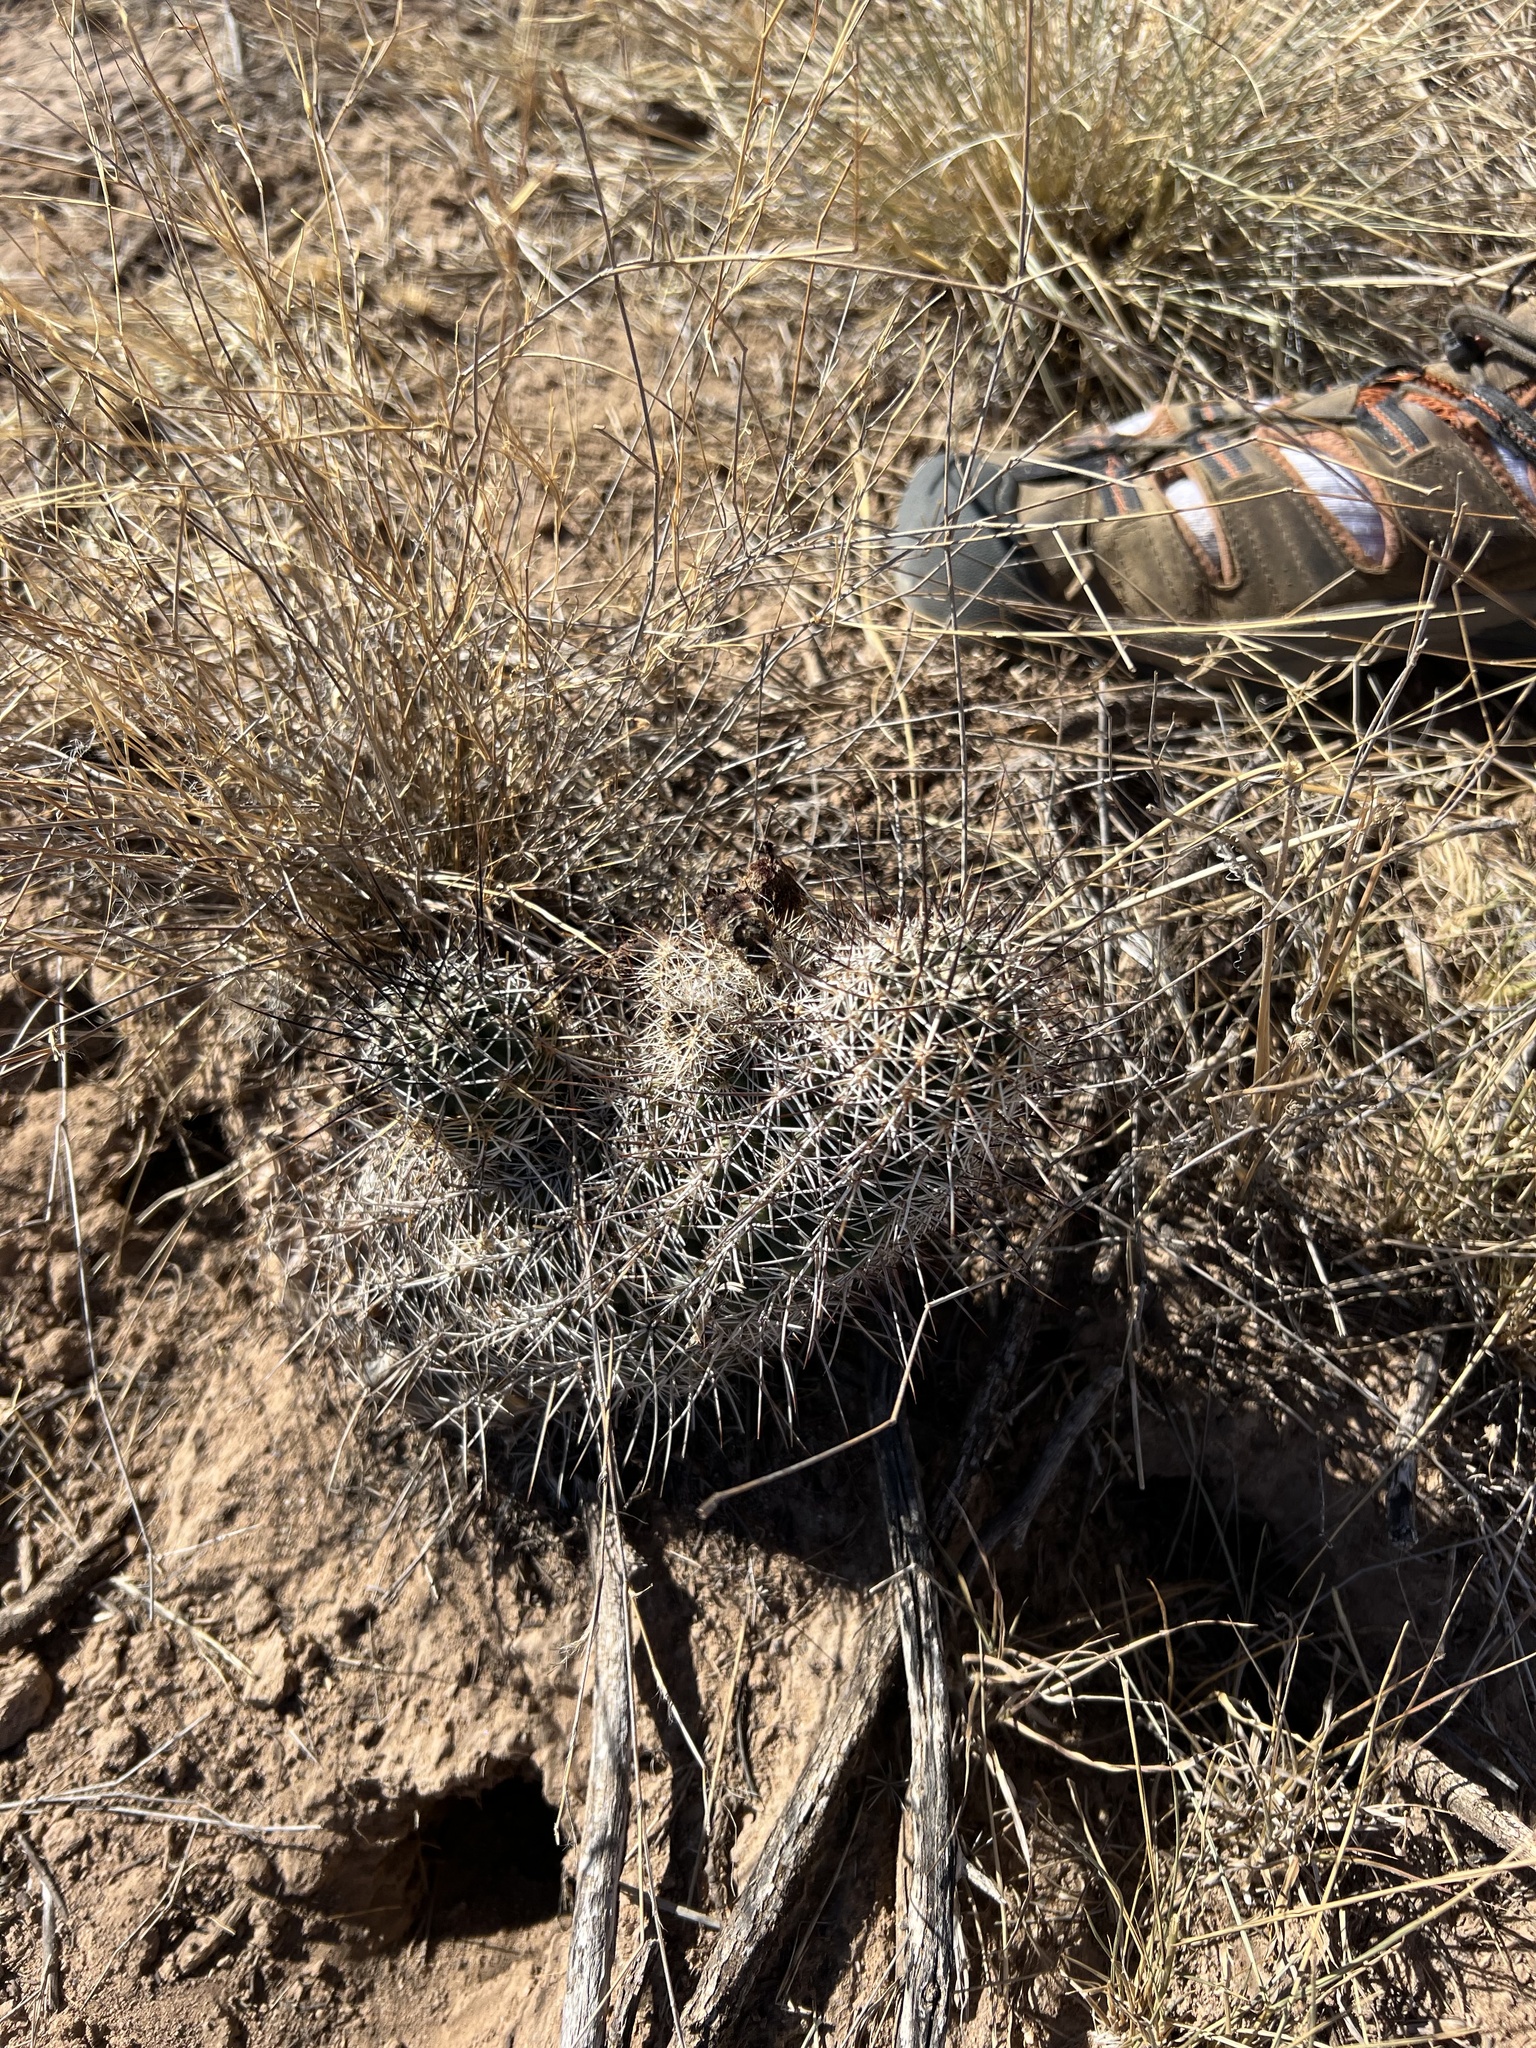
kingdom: Plantae
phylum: Tracheophyta
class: Magnoliopsida
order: Caryophyllales
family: Cactaceae
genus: Echinocereus
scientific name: Echinocereus fendleri
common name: Fendler's hedgehog cactus
